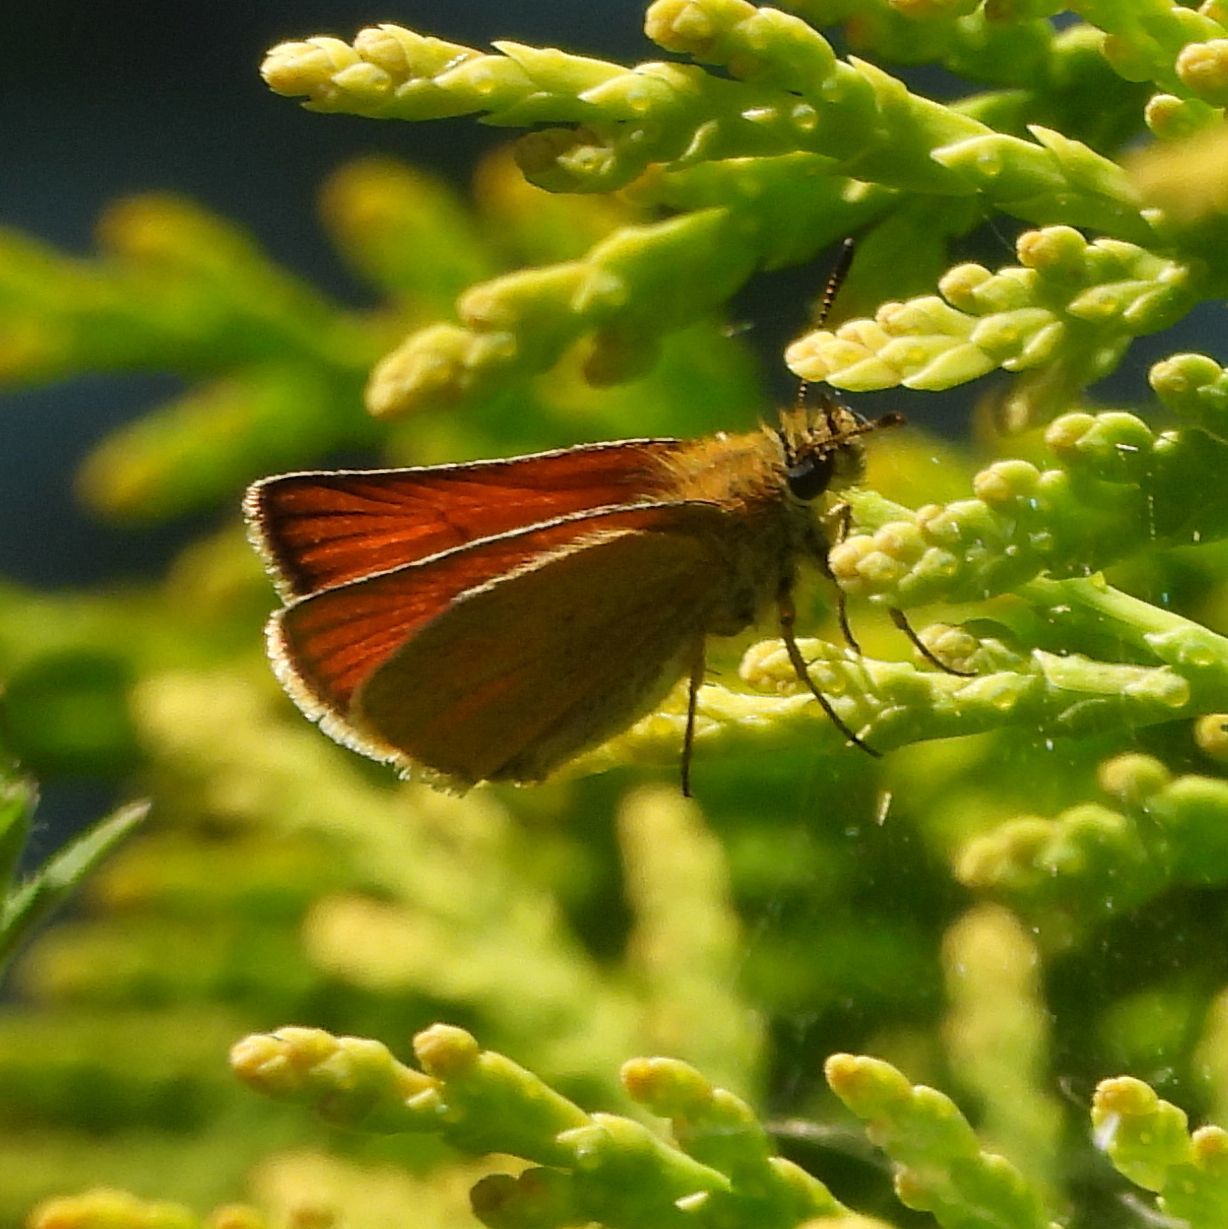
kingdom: Animalia
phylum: Arthropoda
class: Insecta
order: Lepidoptera
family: Hesperiidae
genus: Thymelicus
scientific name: Thymelicus lineola
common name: Essex skipper
